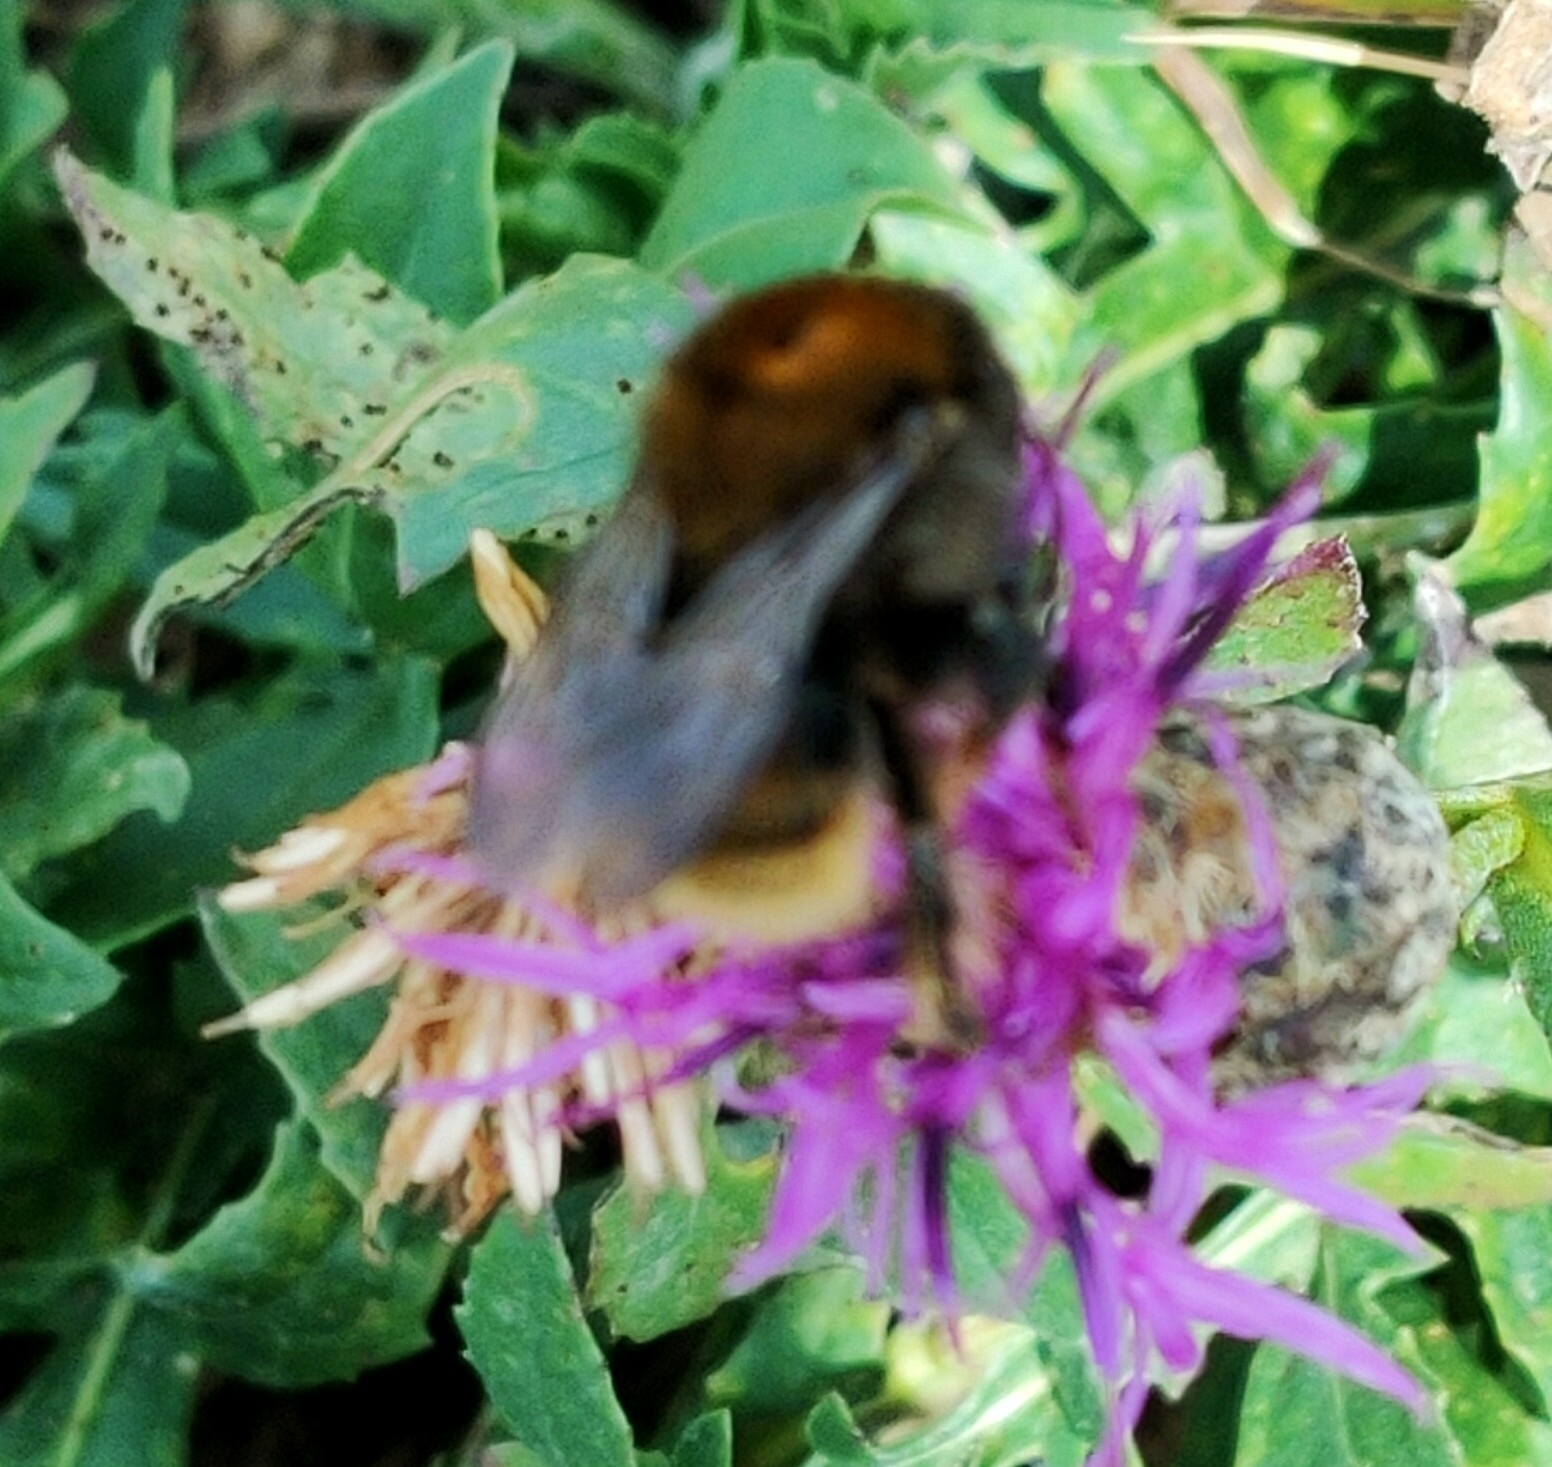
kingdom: Animalia
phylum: Arthropoda
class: Insecta
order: Hymenoptera
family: Apidae
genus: Bombus
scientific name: Bombus humilis
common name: Brown-banded carder-bee
